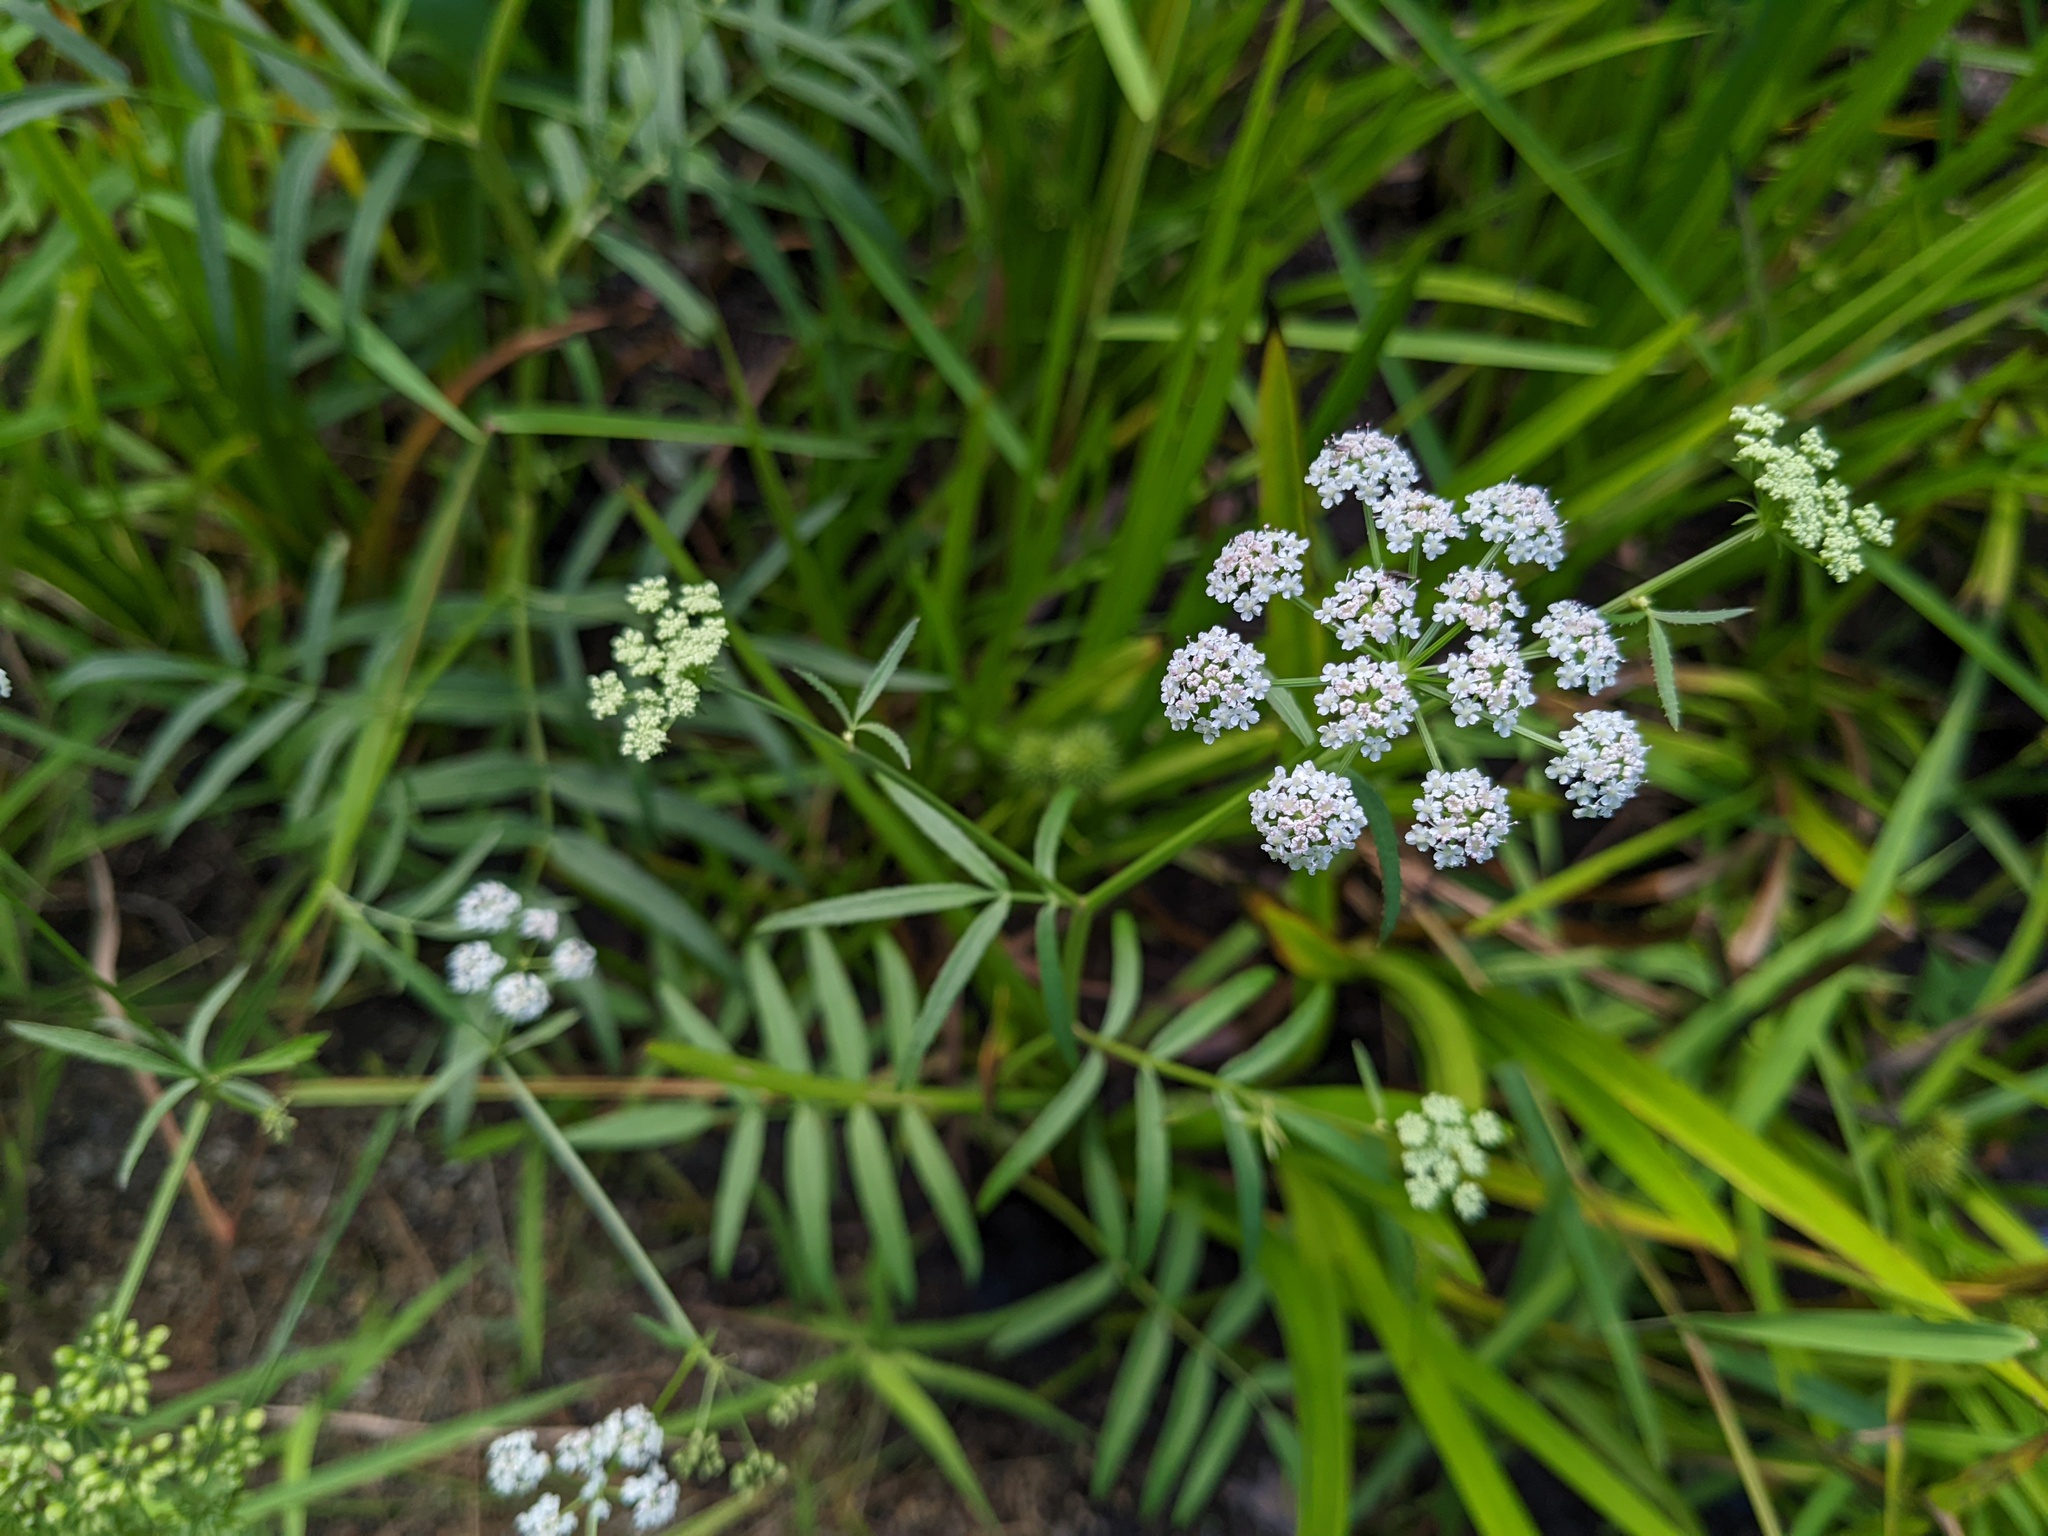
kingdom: Plantae
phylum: Tracheophyta
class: Magnoliopsida
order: Apiales
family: Apiaceae
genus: Sium
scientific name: Sium suave
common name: Hemlock water-parsnip
